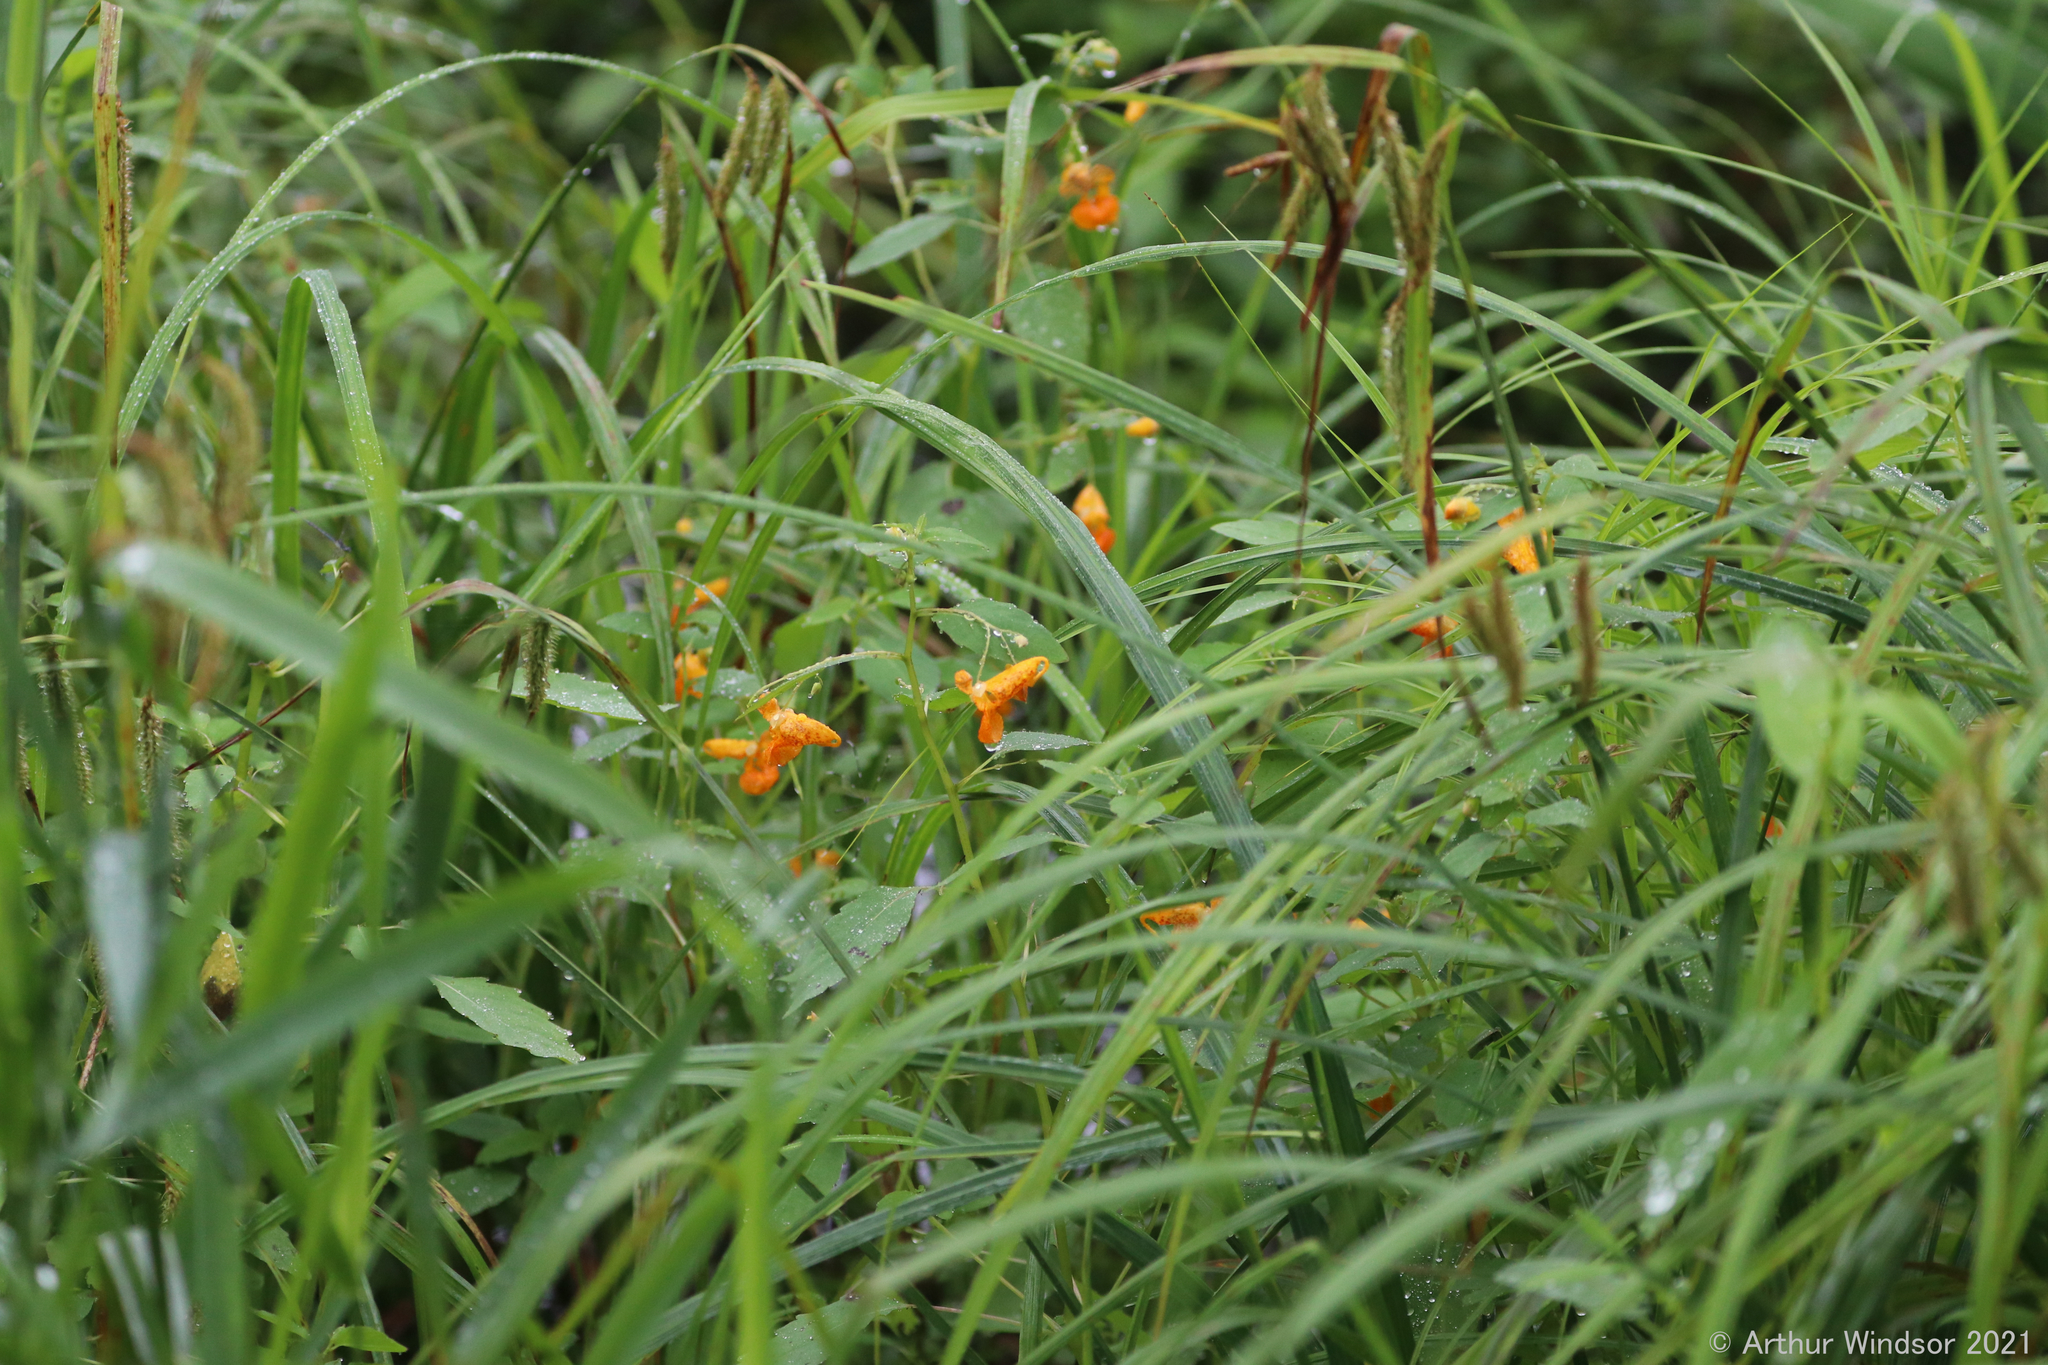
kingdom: Plantae
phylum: Tracheophyta
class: Magnoliopsida
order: Ericales
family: Balsaminaceae
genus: Impatiens
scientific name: Impatiens capensis
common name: Orange balsam
